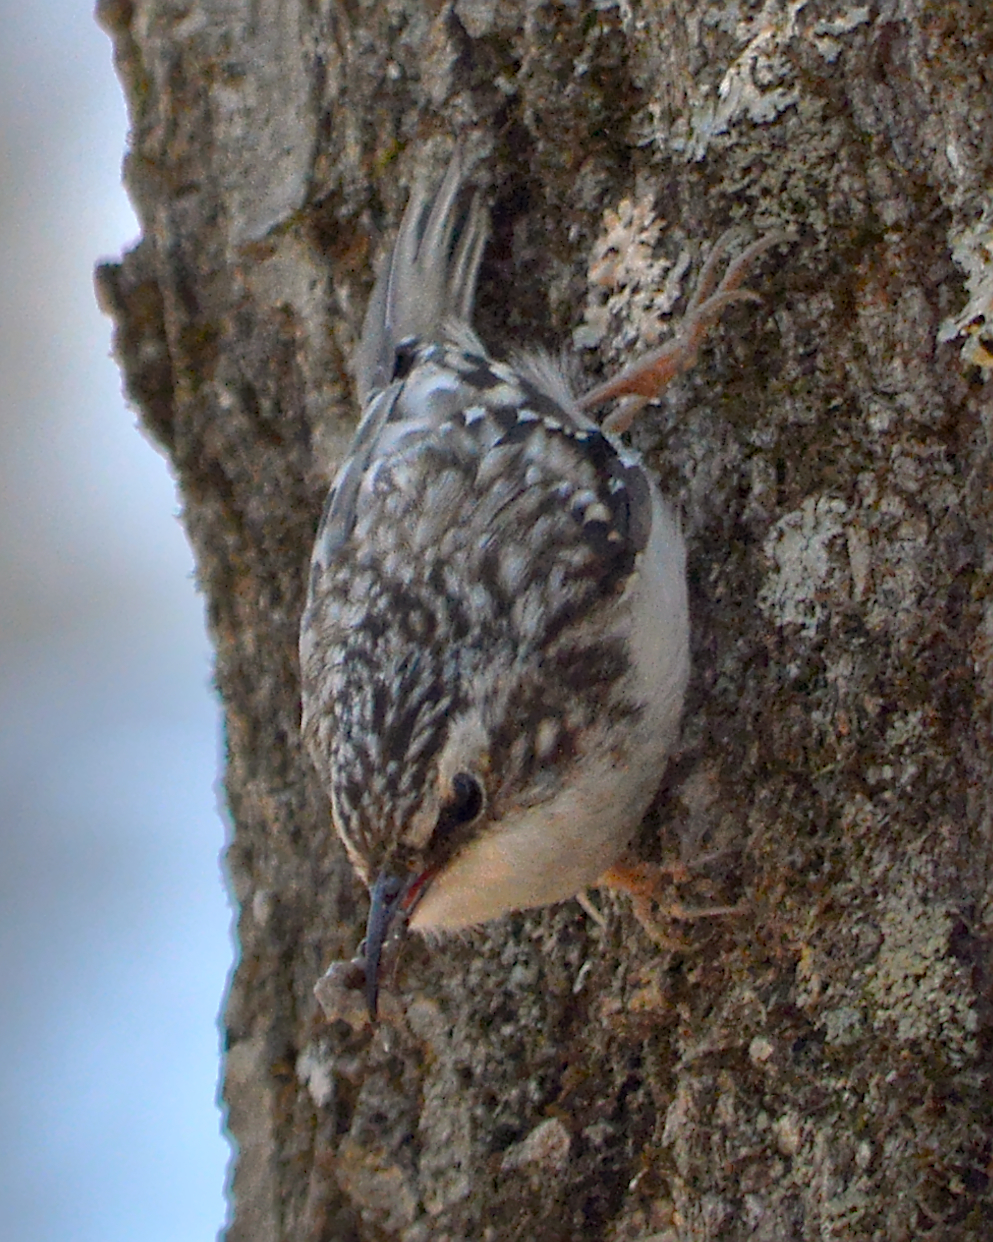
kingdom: Animalia
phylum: Chordata
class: Aves
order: Passeriformes
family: Certhiidae
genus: Certhia
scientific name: Certhia americana
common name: Brown creeper
